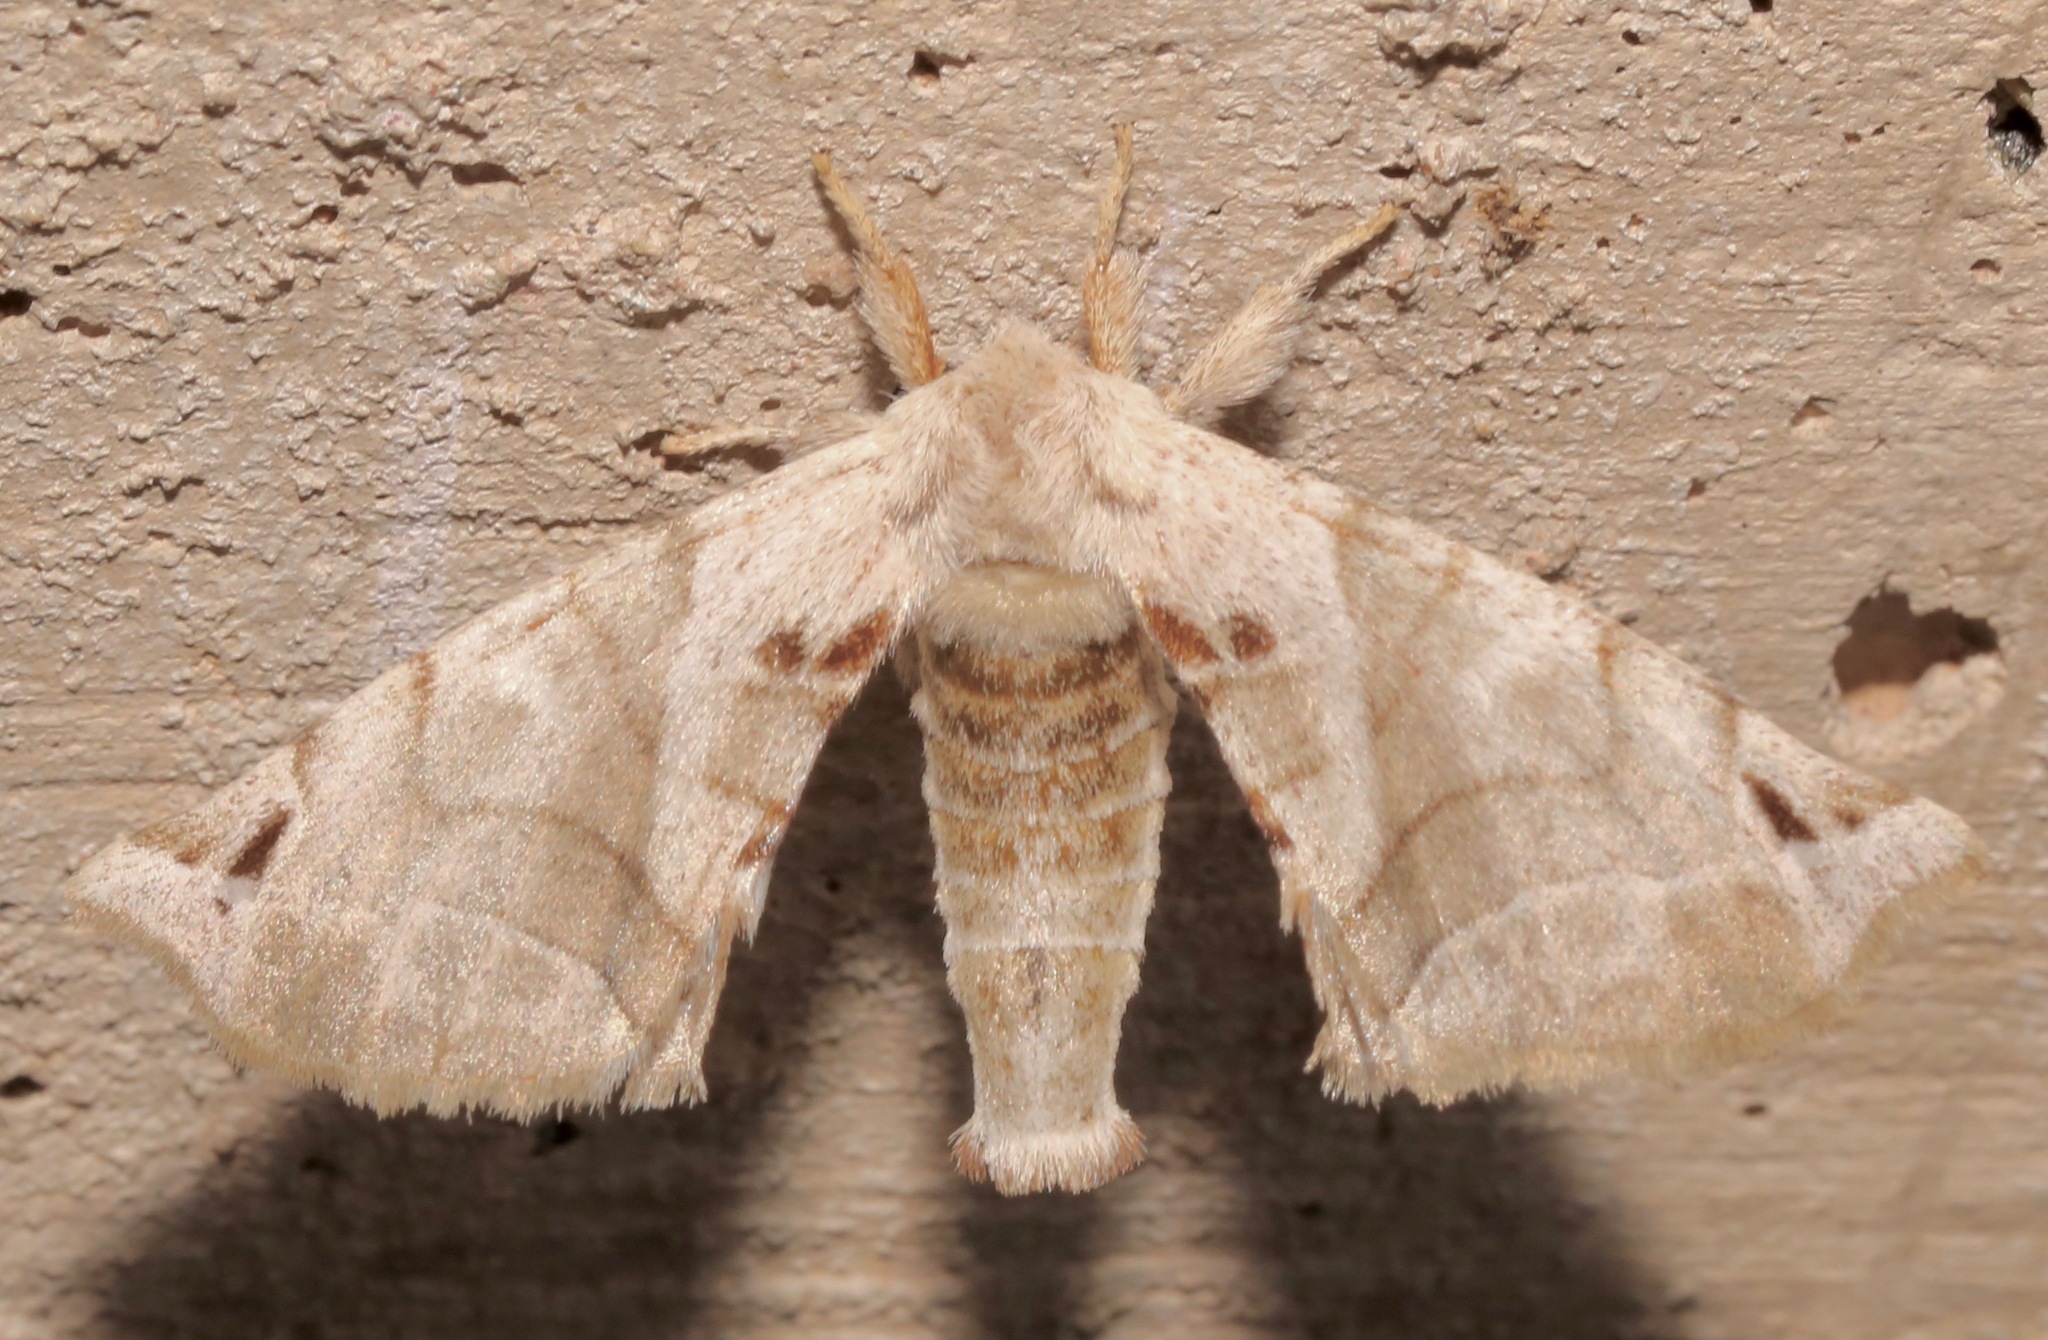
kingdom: Animalia
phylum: Arthropoda
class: Insecta
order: Lepidoptera
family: Apatelodidae
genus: Hygrochroa
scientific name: Hygrochroa Apatelodes pudefacta
